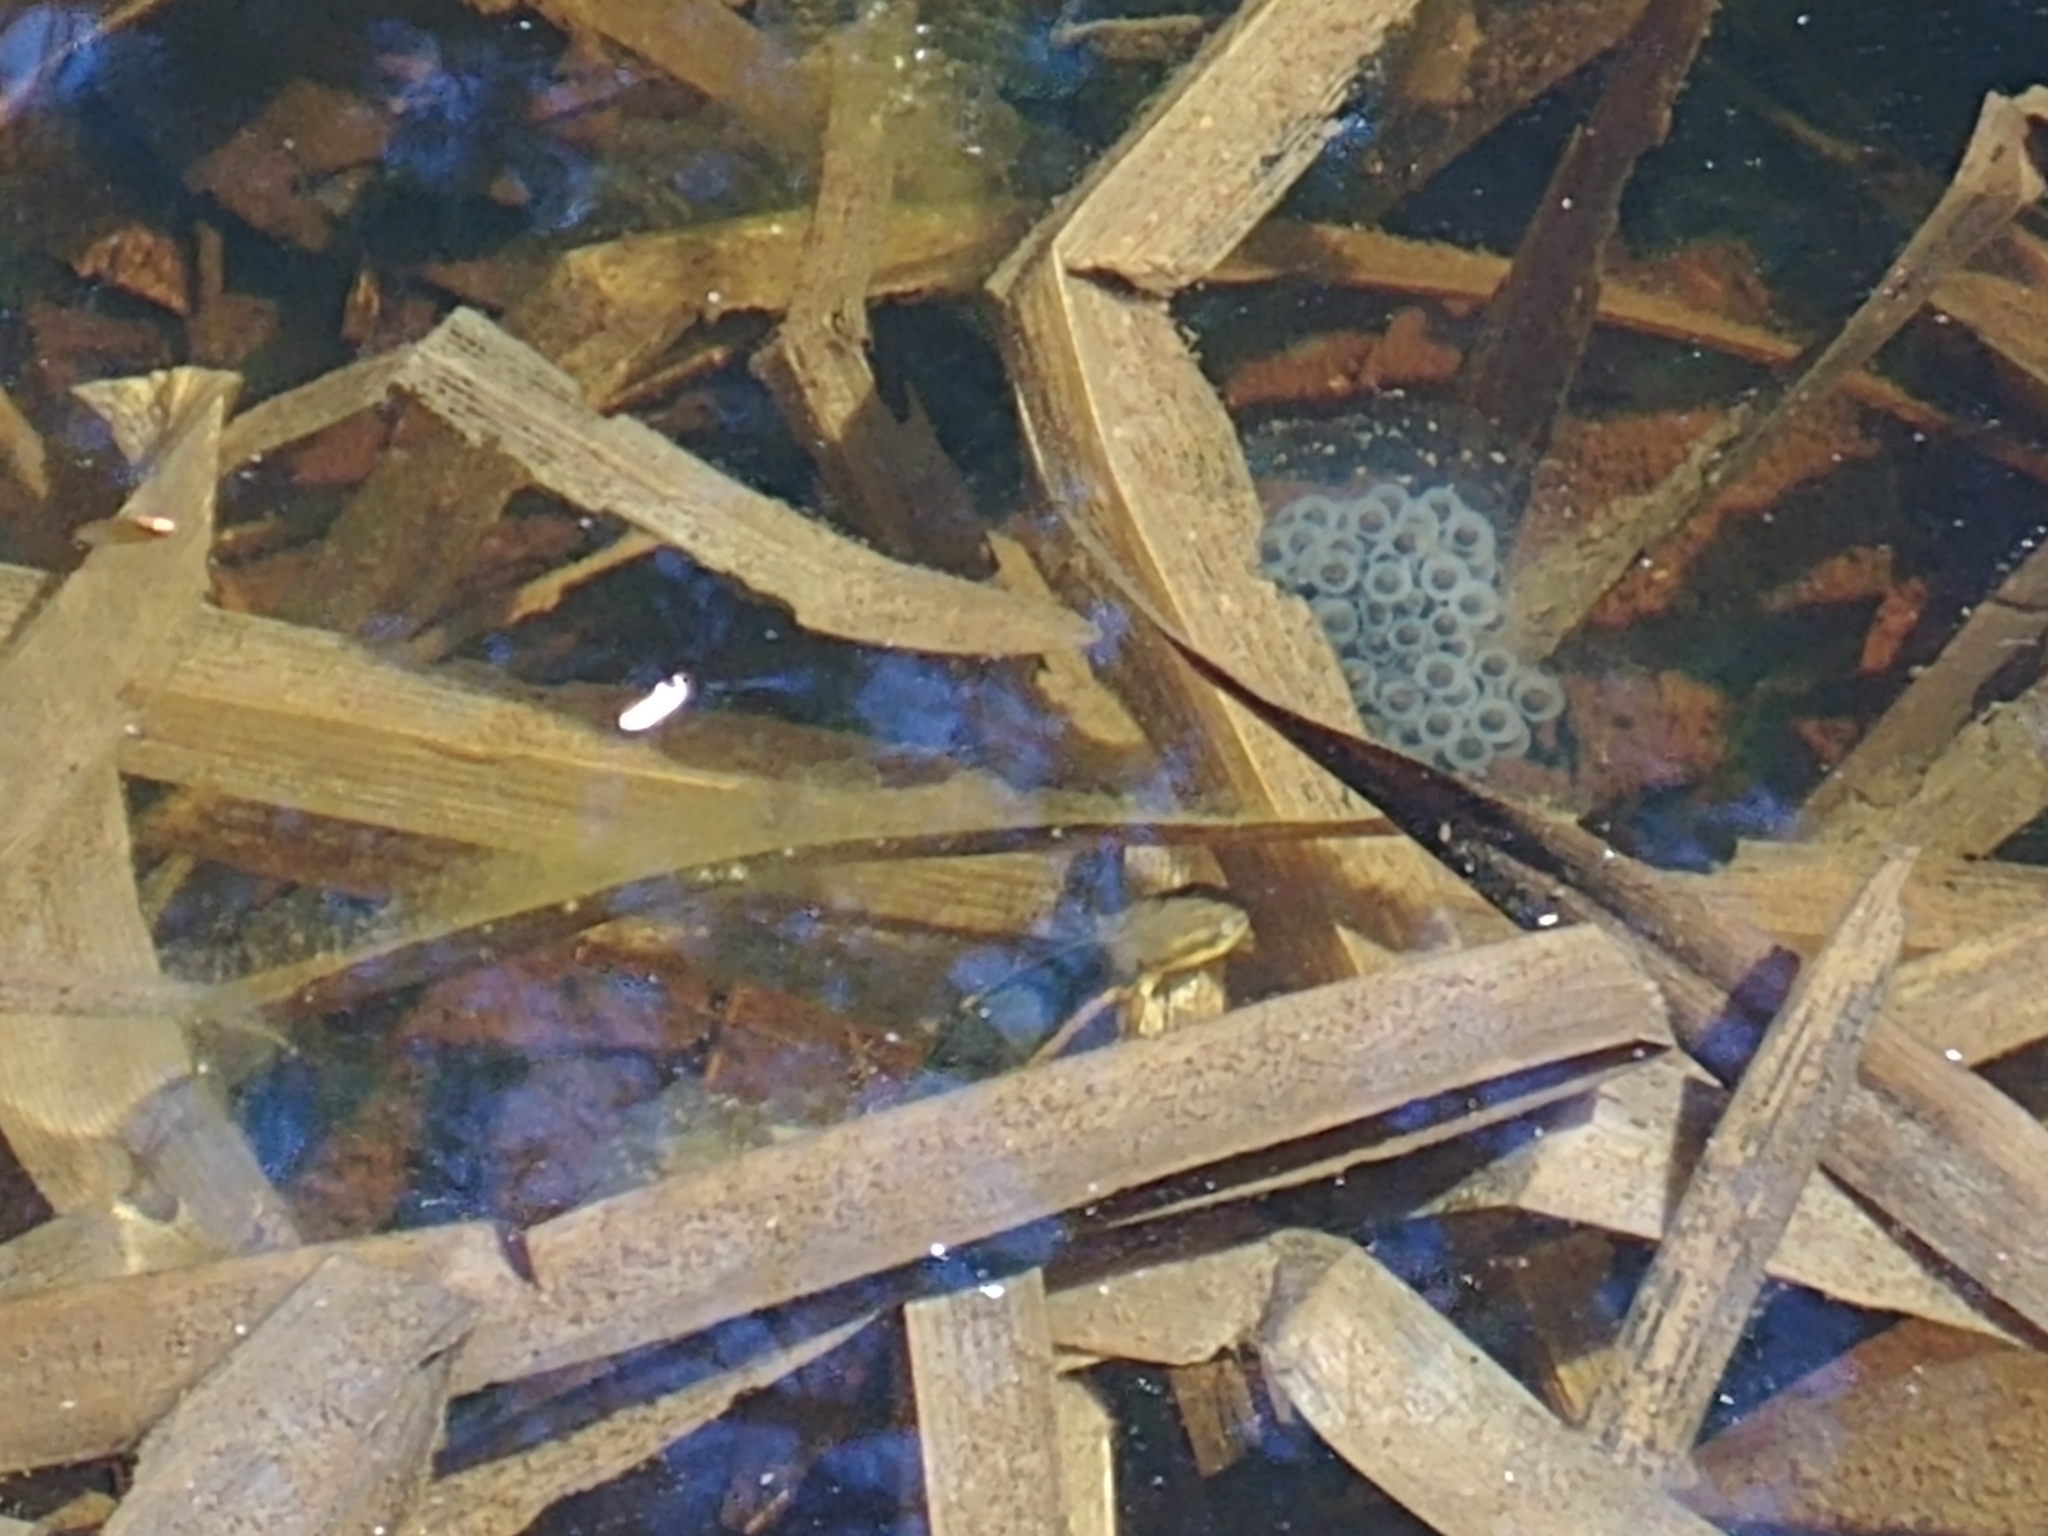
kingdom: Animalia
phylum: Chordata
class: Amphibia
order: Caudata
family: Ambystomatidae
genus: Ambystoma
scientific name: Ambystoma maculatum
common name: Spotted salamander
